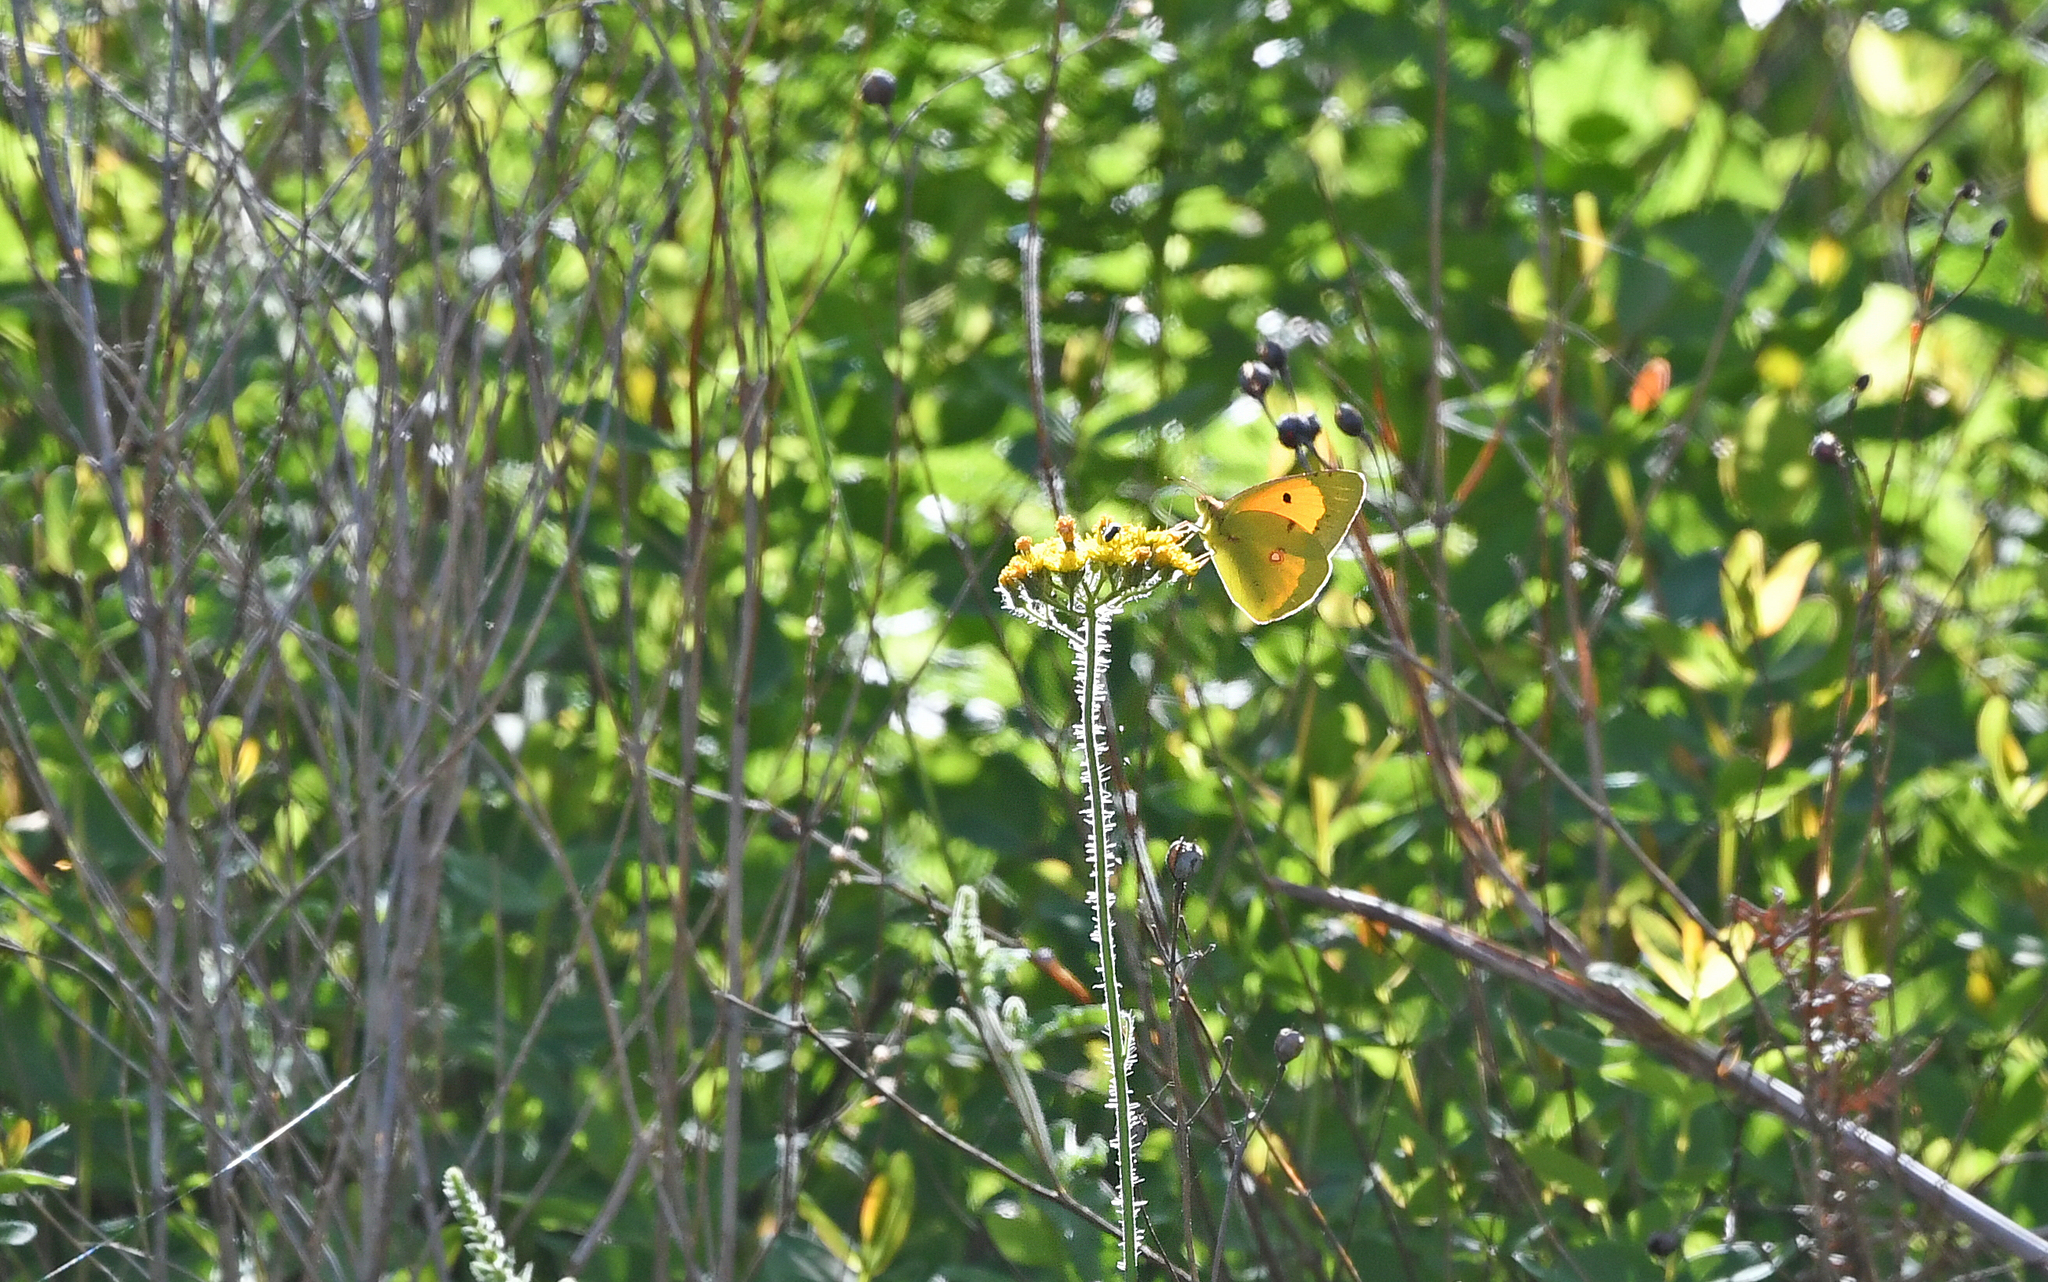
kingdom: Animalia
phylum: Arthropoda
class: Insecta
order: Lepidoptera
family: Pieridae
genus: Colias
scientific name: Colias croceus
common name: Clouded yellow
